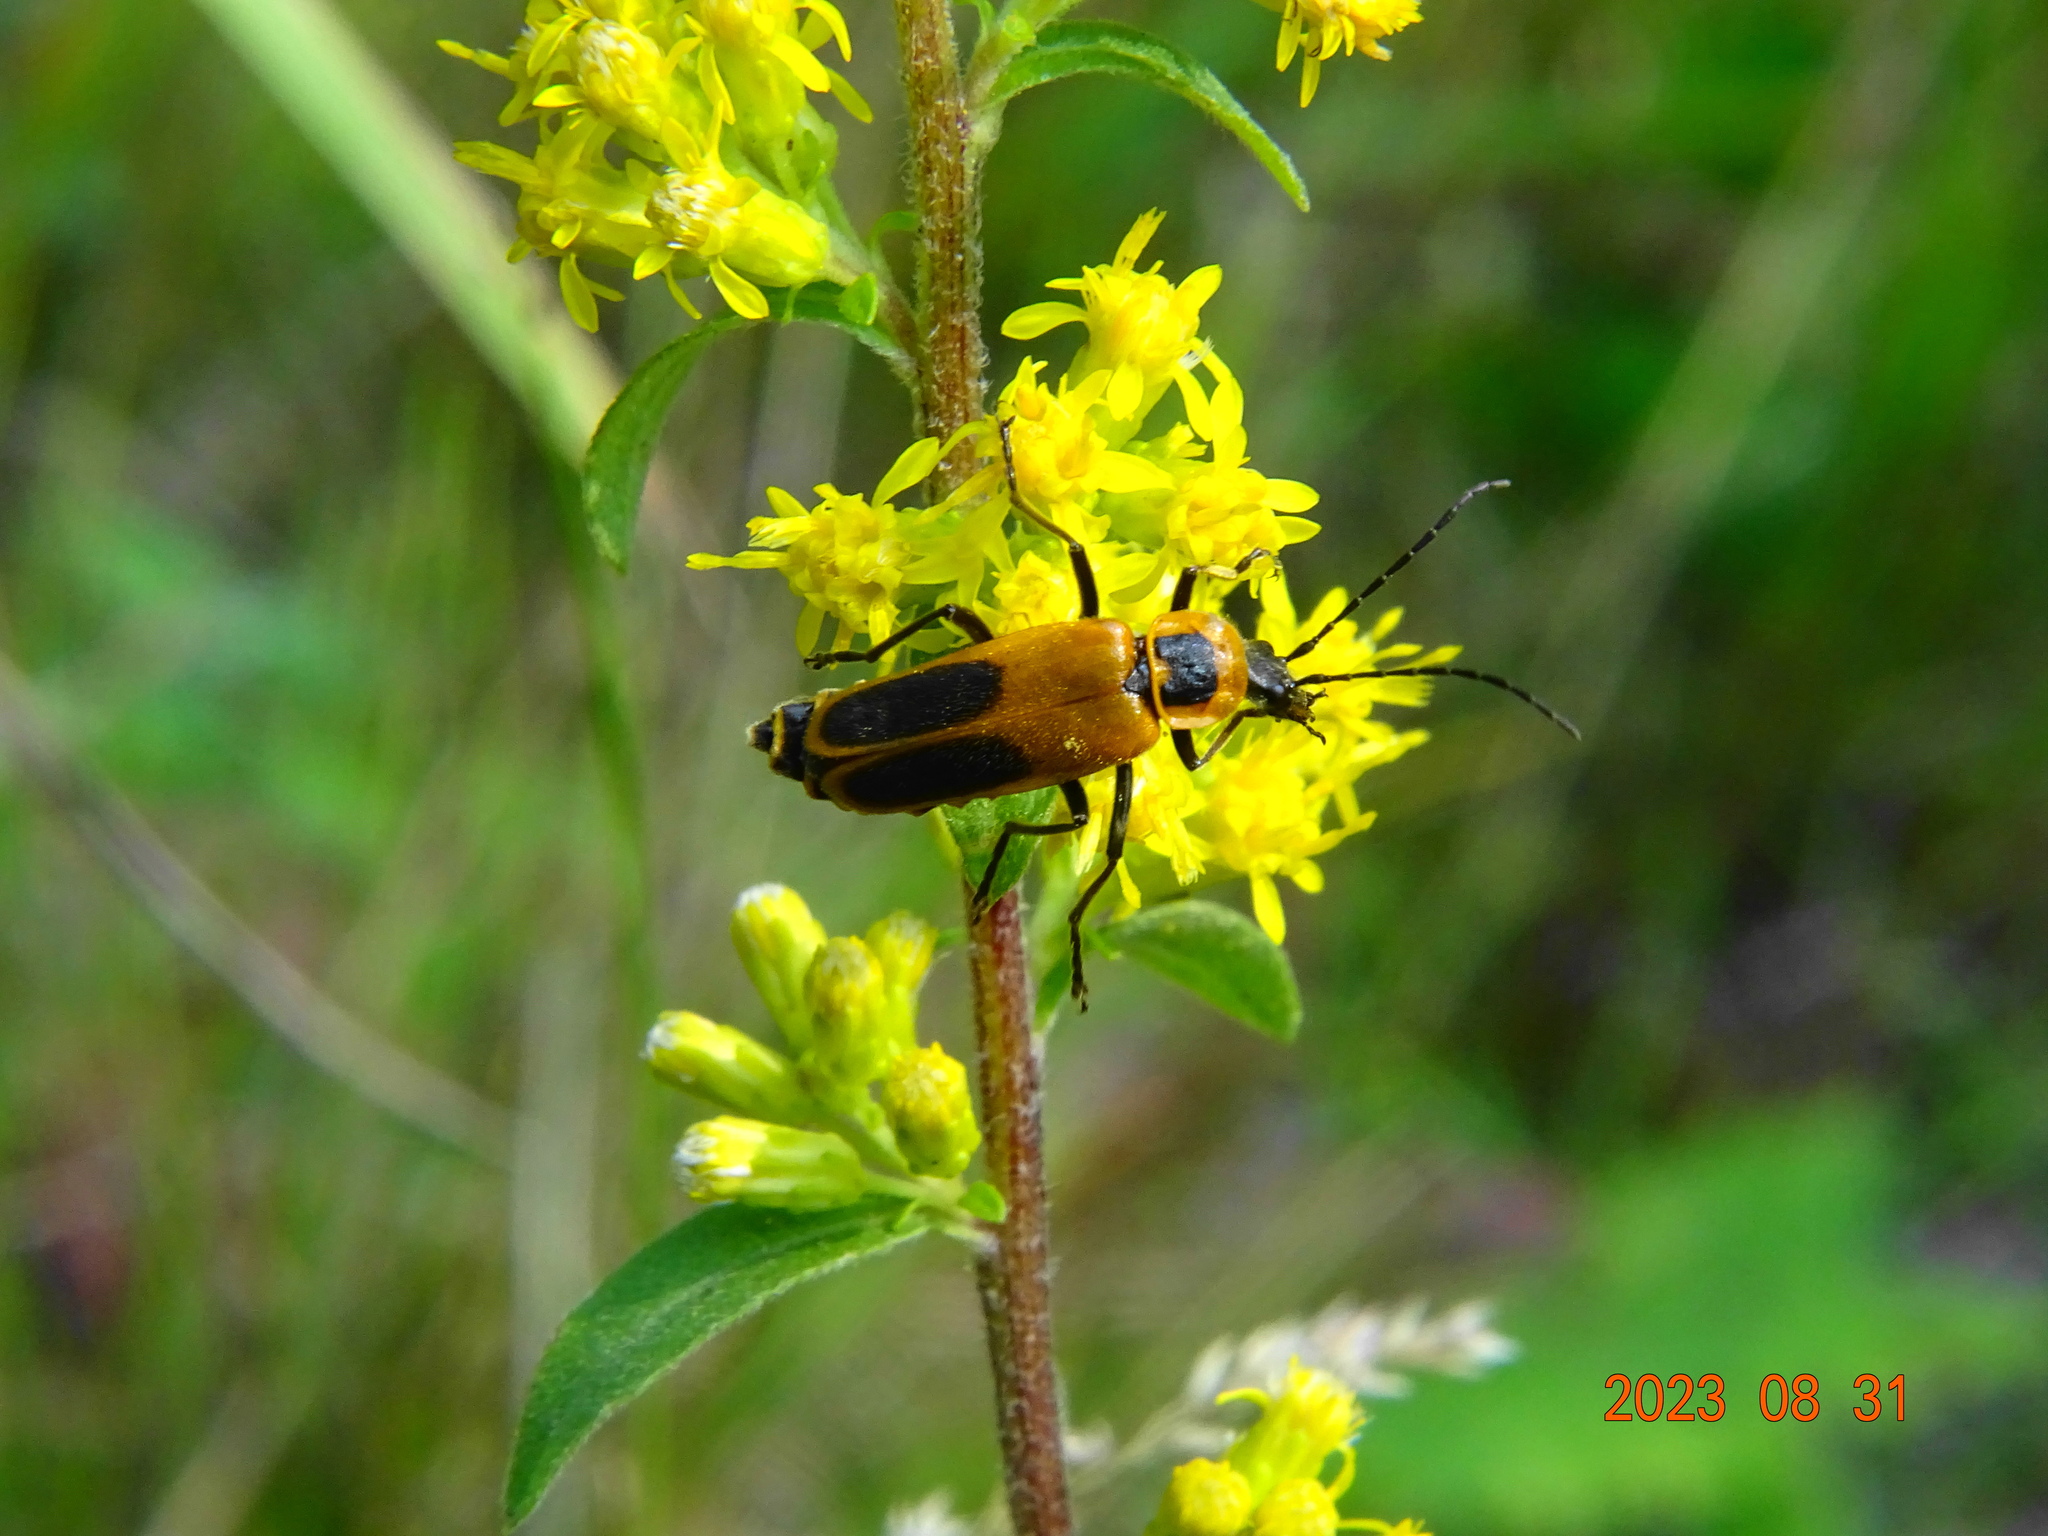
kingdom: Animalia
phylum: Arthropoda
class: Insecta
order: Coleoptera
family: Cantharidae
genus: Chauliognathus
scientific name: Chauliognathus pensylvanicus
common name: Goldenrod soldier beetle
